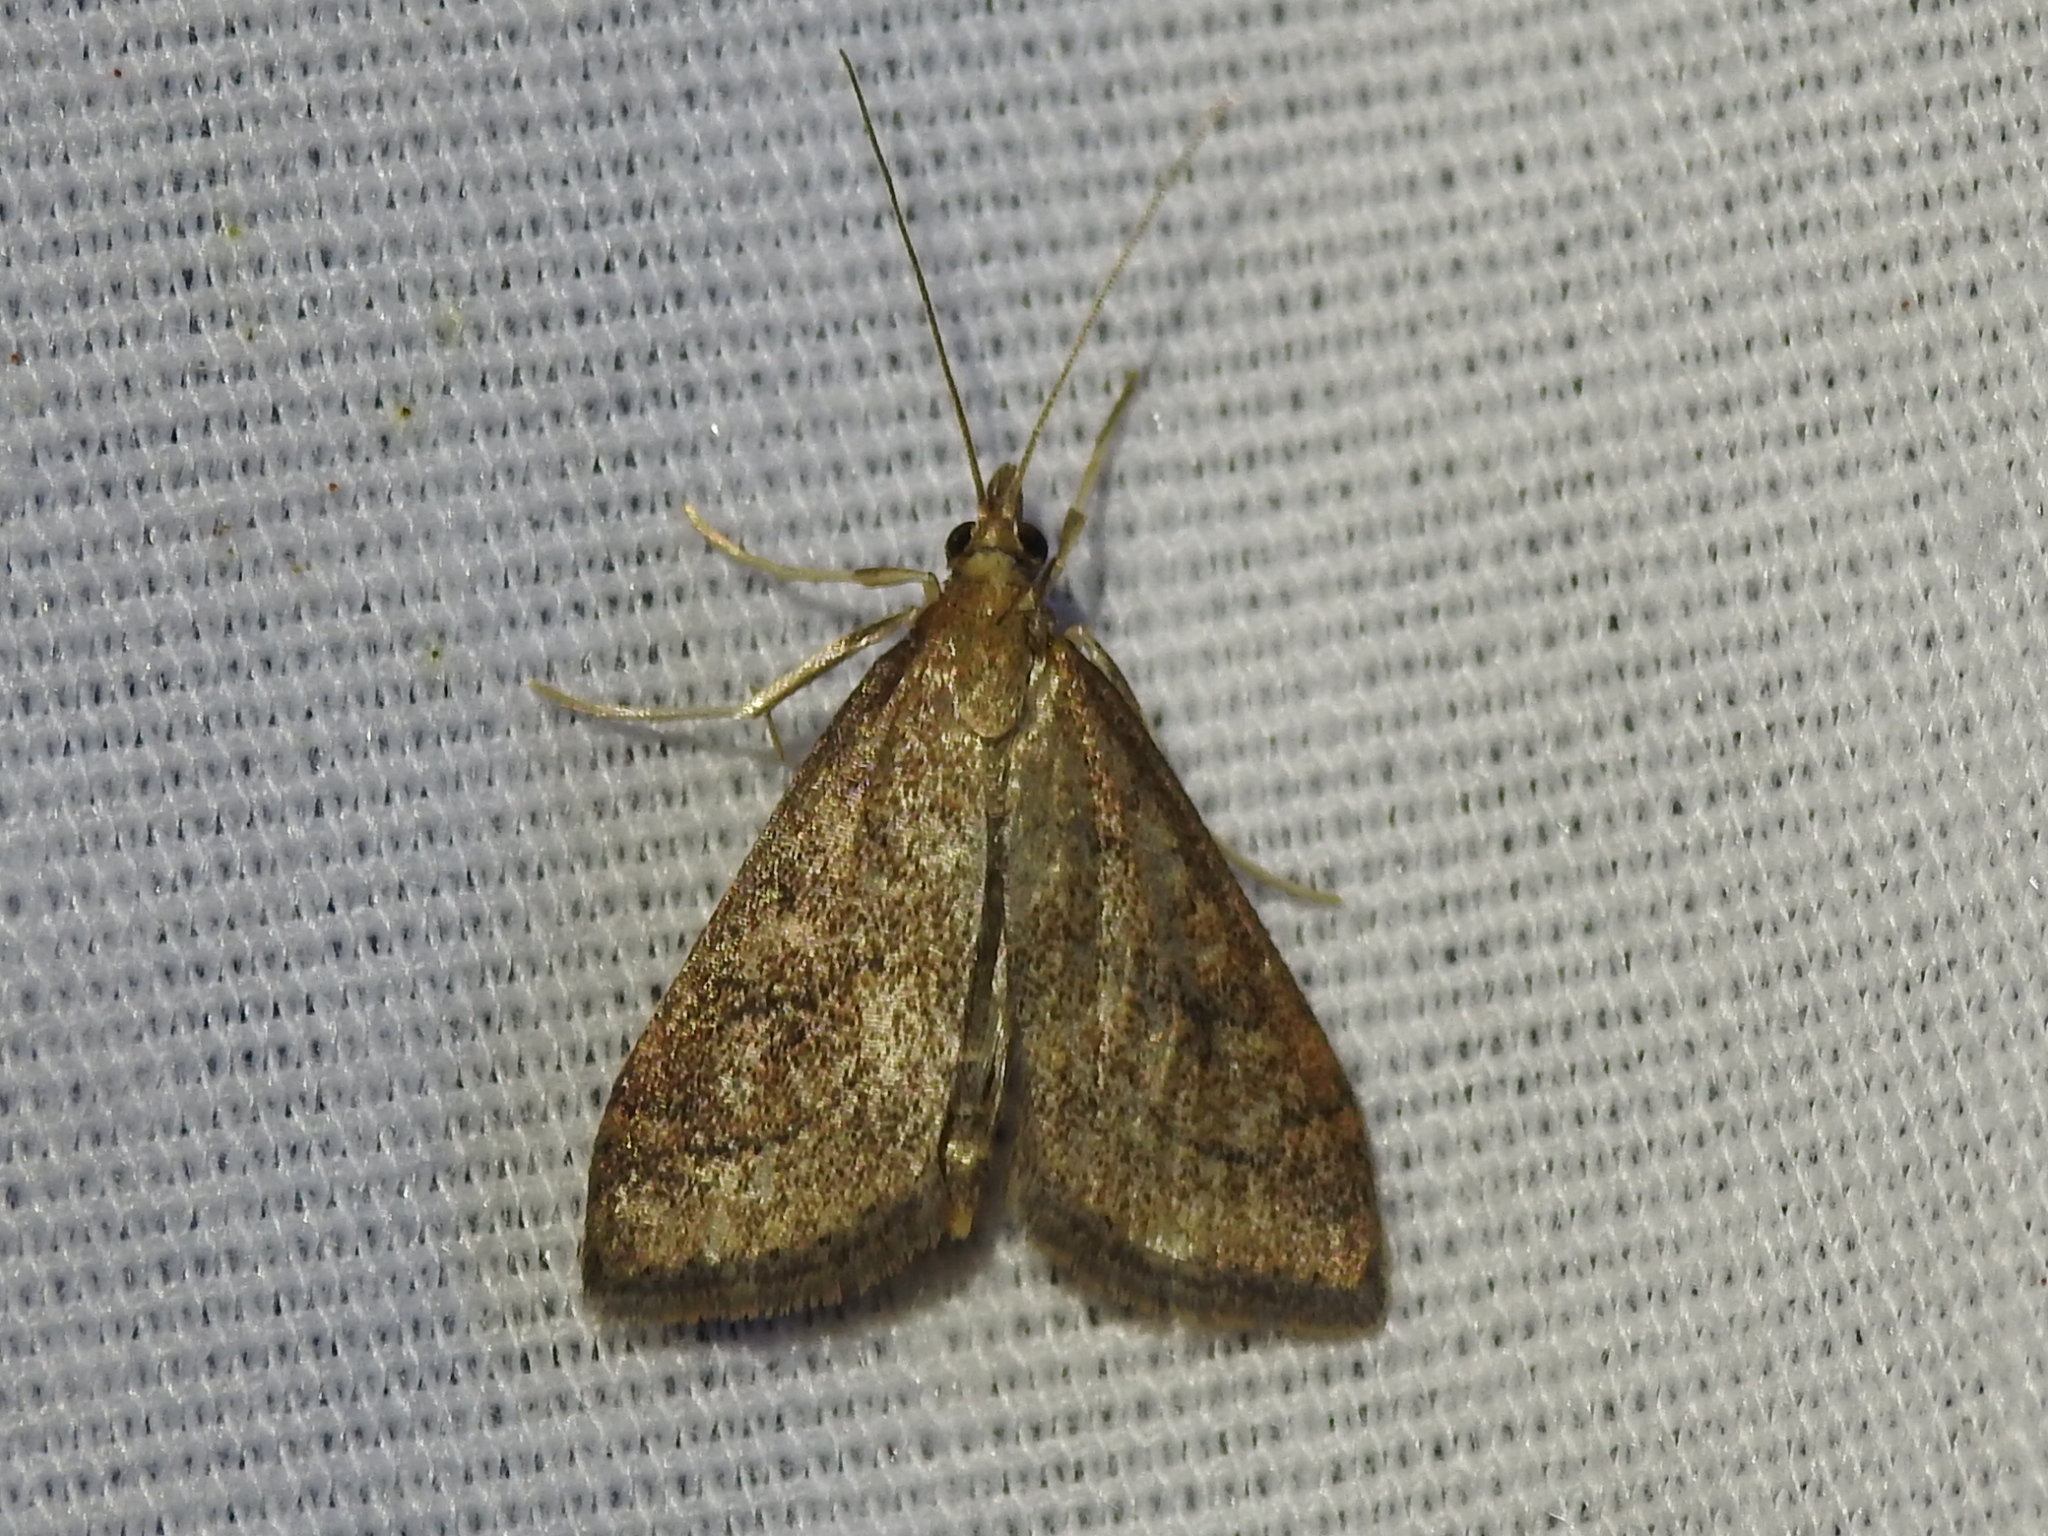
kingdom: Animalia
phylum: Arthropoda
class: Insecta
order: Lepidoptera
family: Crambidae
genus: Udea
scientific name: Udea rubigalis
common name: Celery leaftier moth
